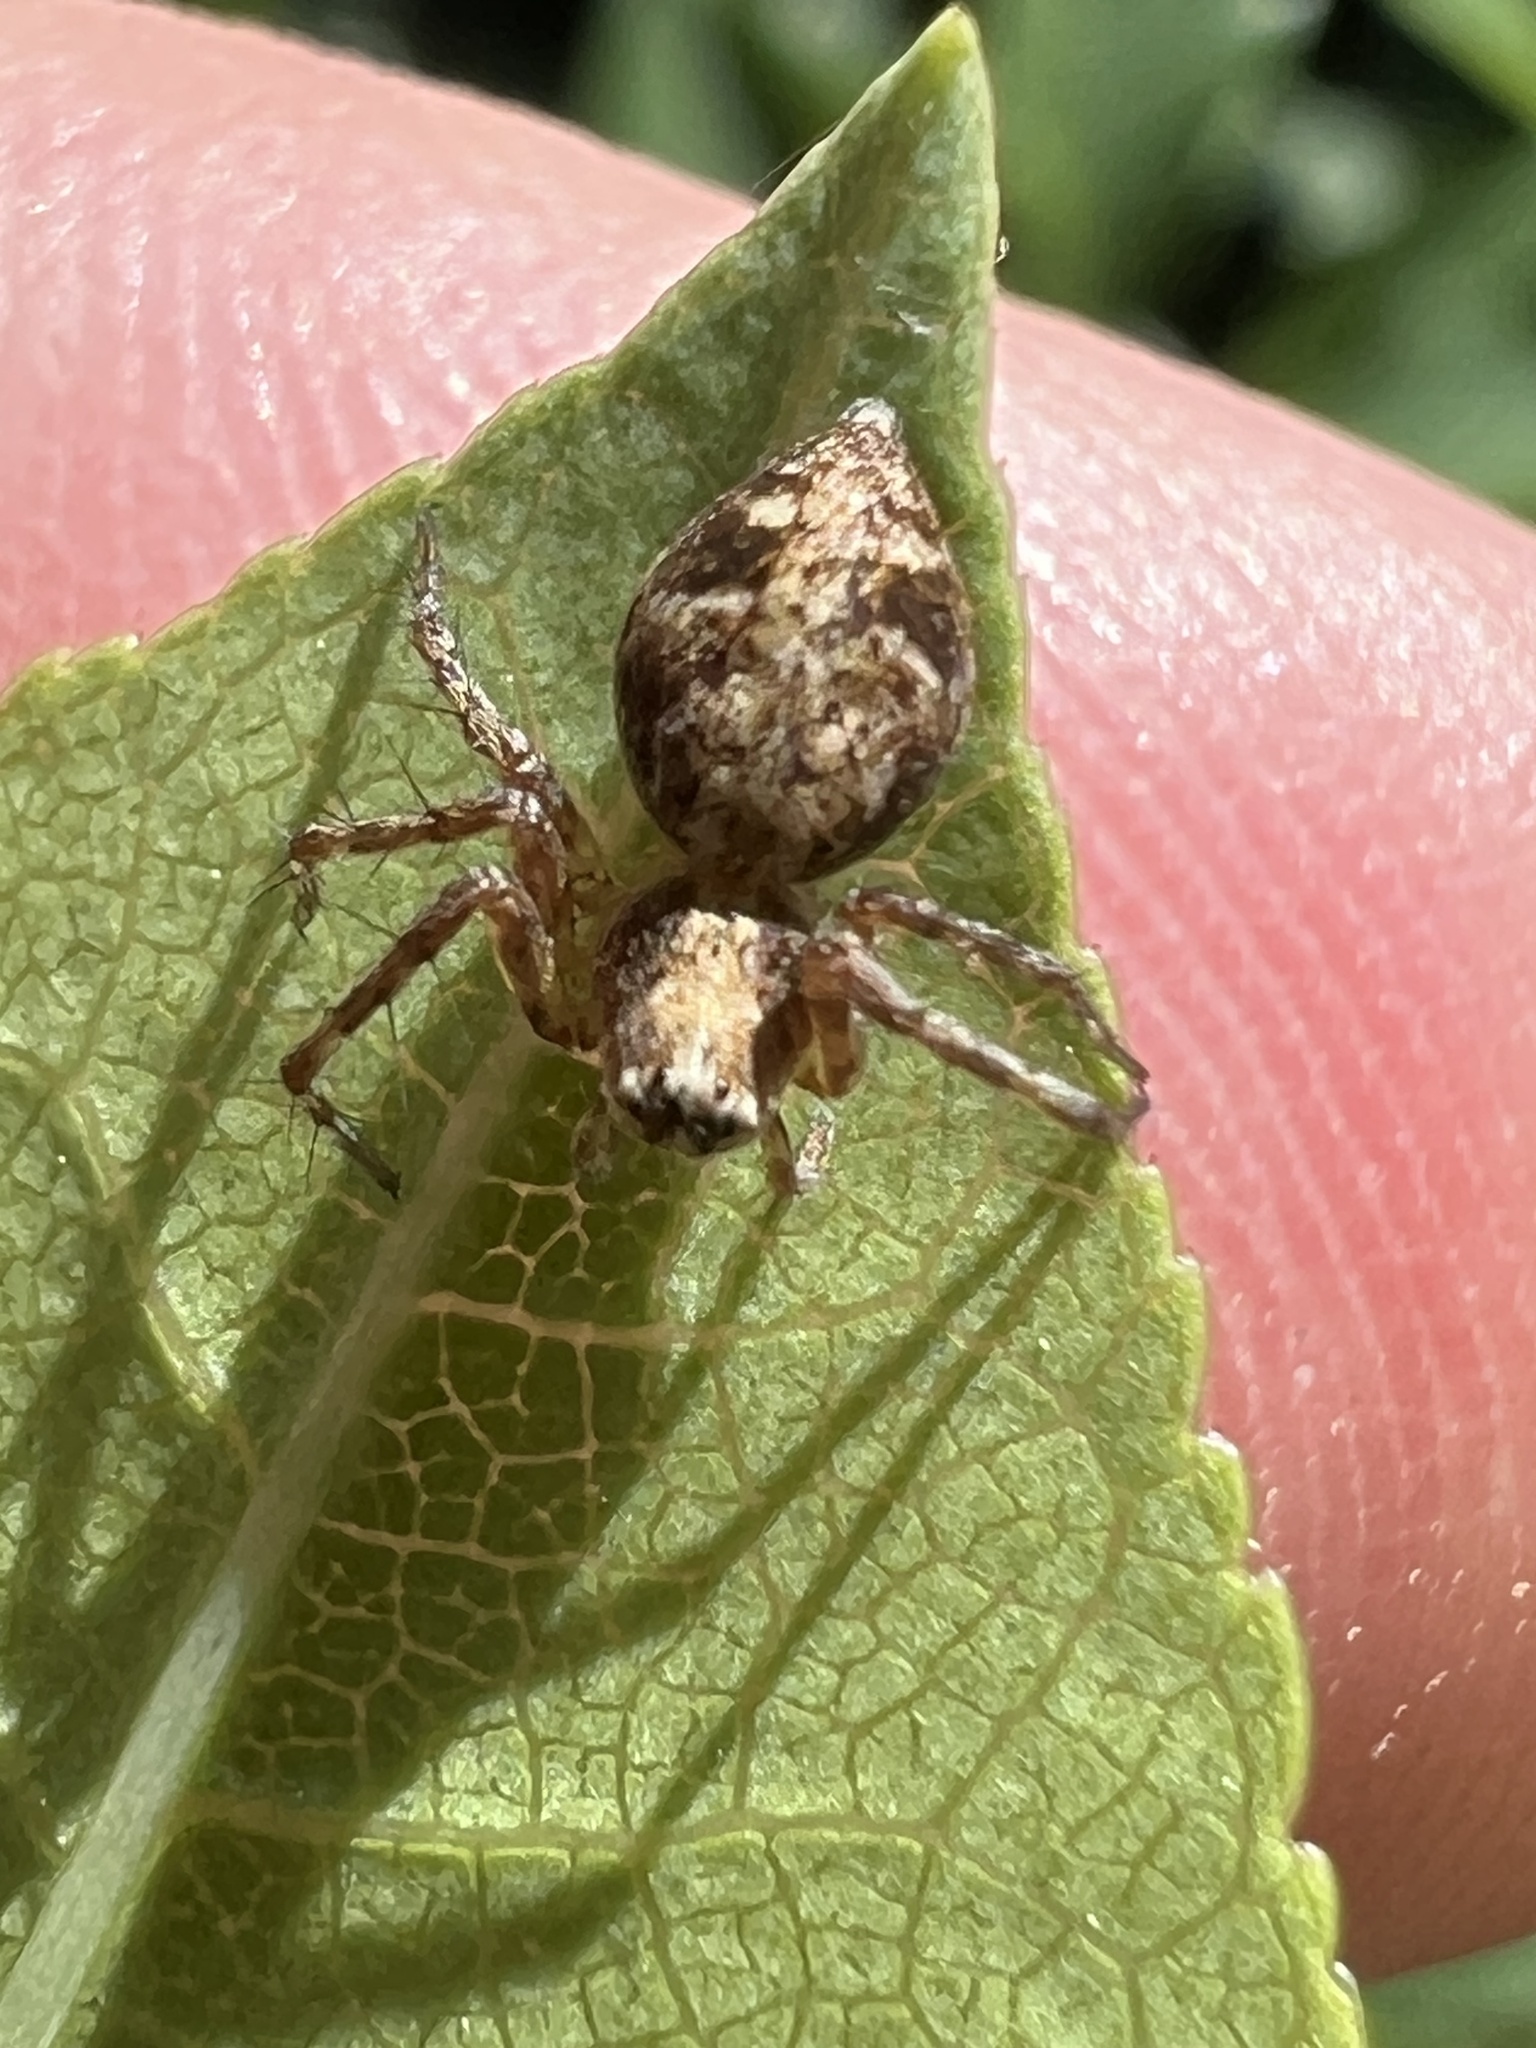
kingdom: Animalia
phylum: Arthropoda
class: Arachnida
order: Araneae
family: Oxyopidae
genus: Oxyopes
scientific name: Oxyopes scalaris
